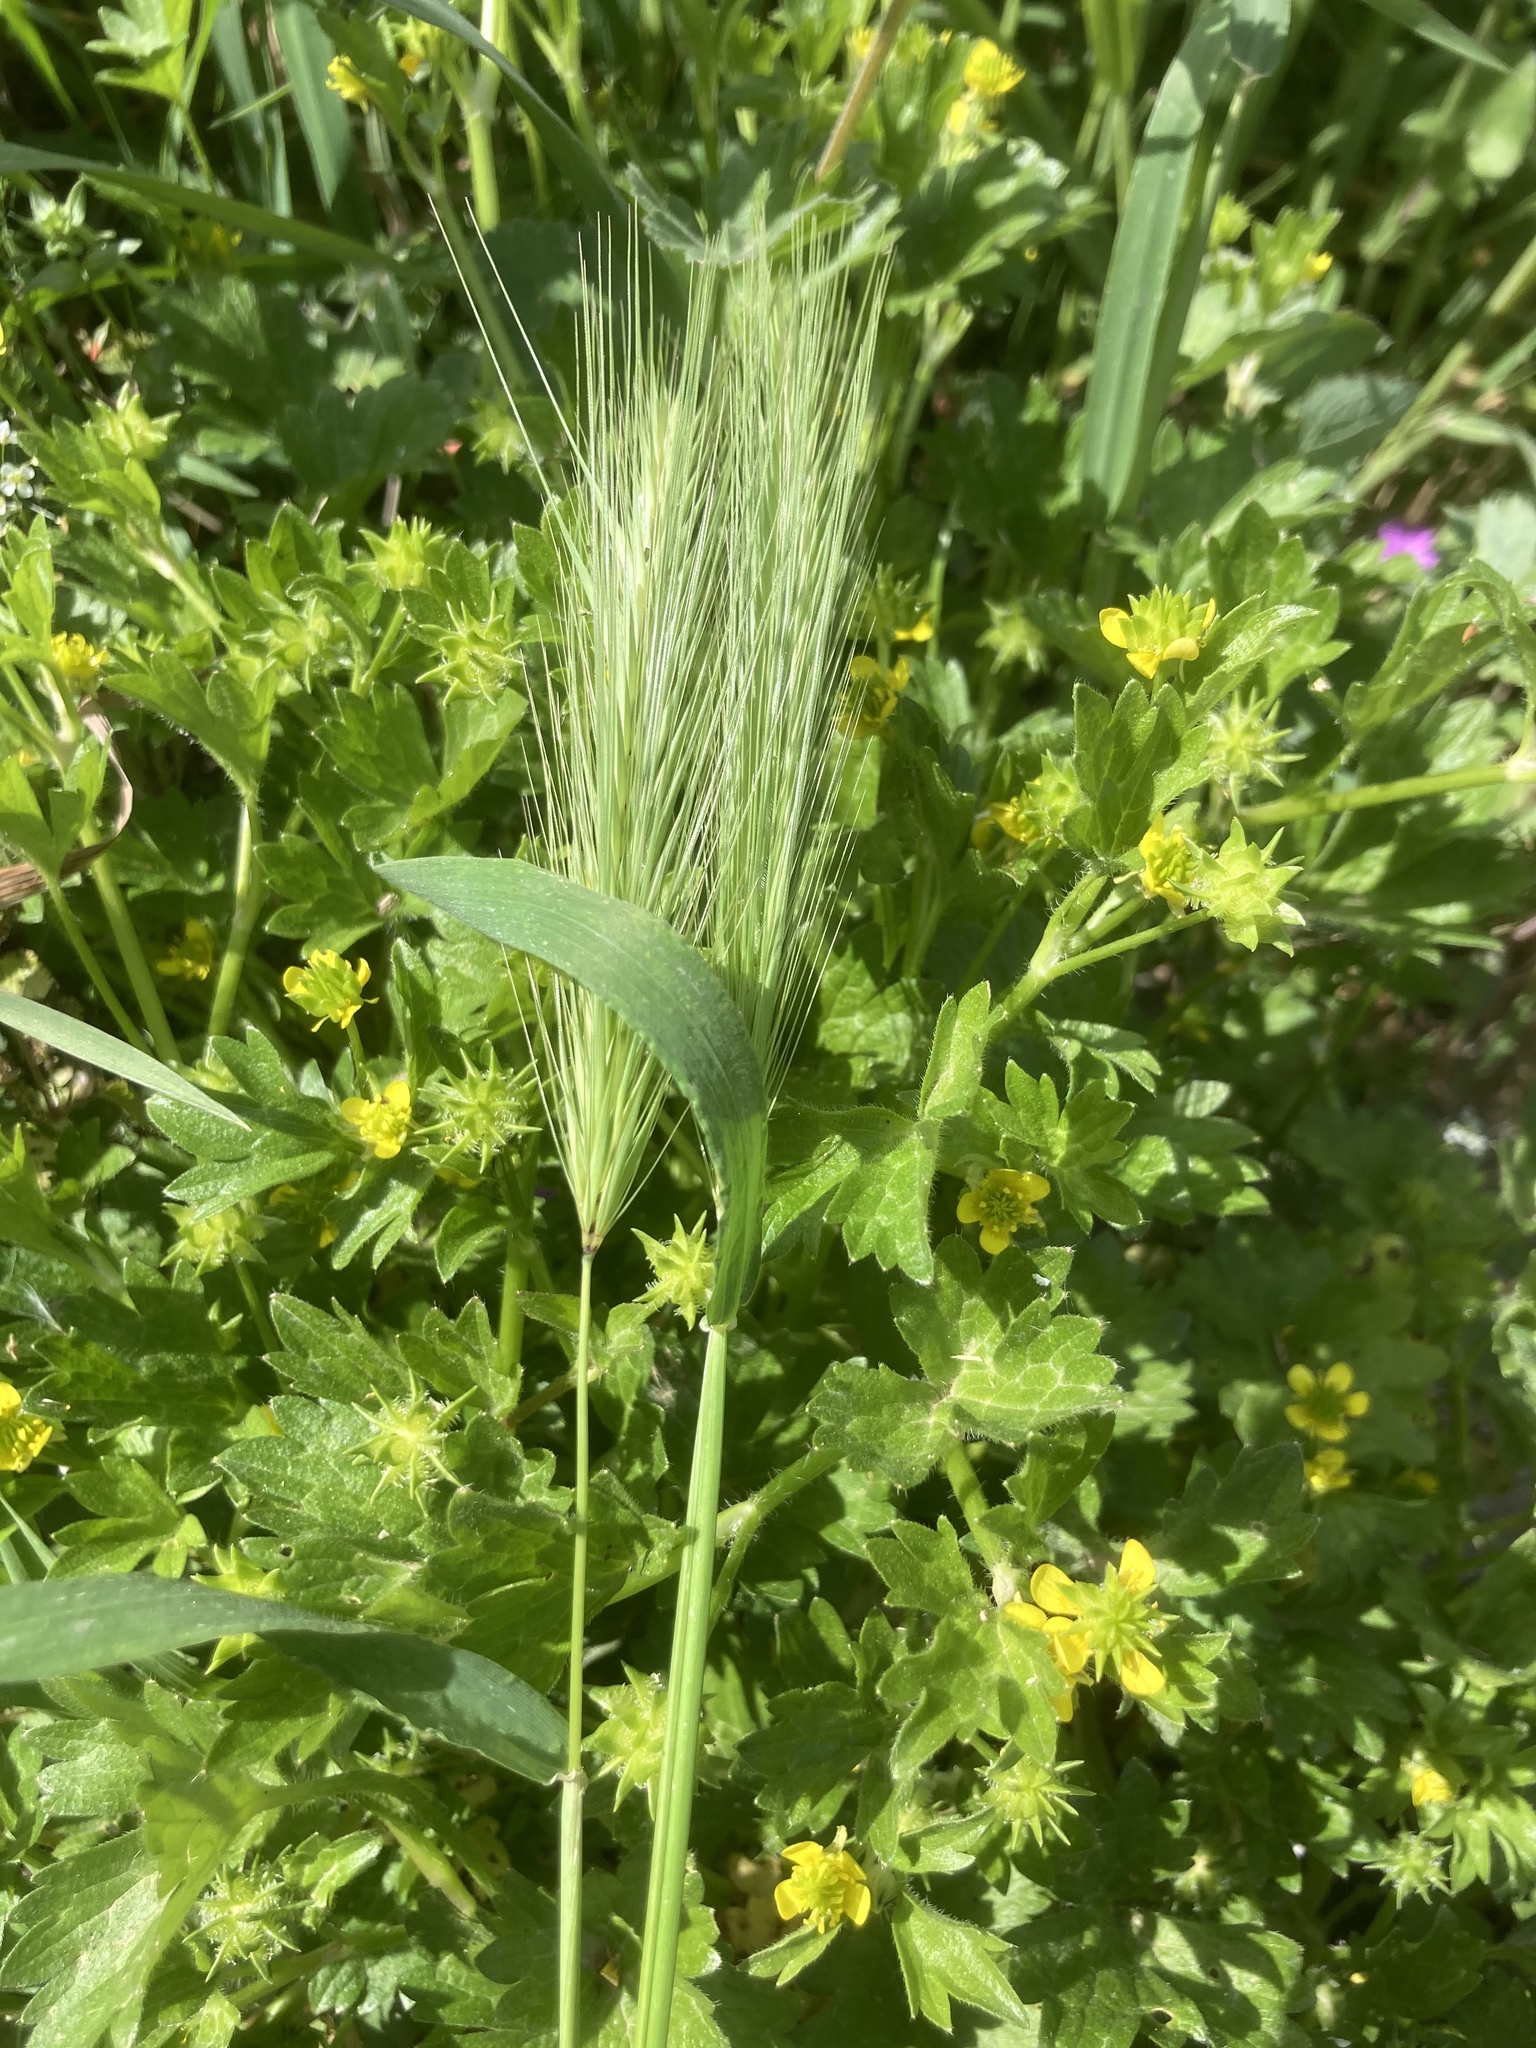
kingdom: Plantae
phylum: Tracheophyta
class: Magnoliopsida
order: Ranunculales
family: Ranunculaceae
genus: Ranunculus
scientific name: Ranunculus muricatus
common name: Rough-fruited buttercup
